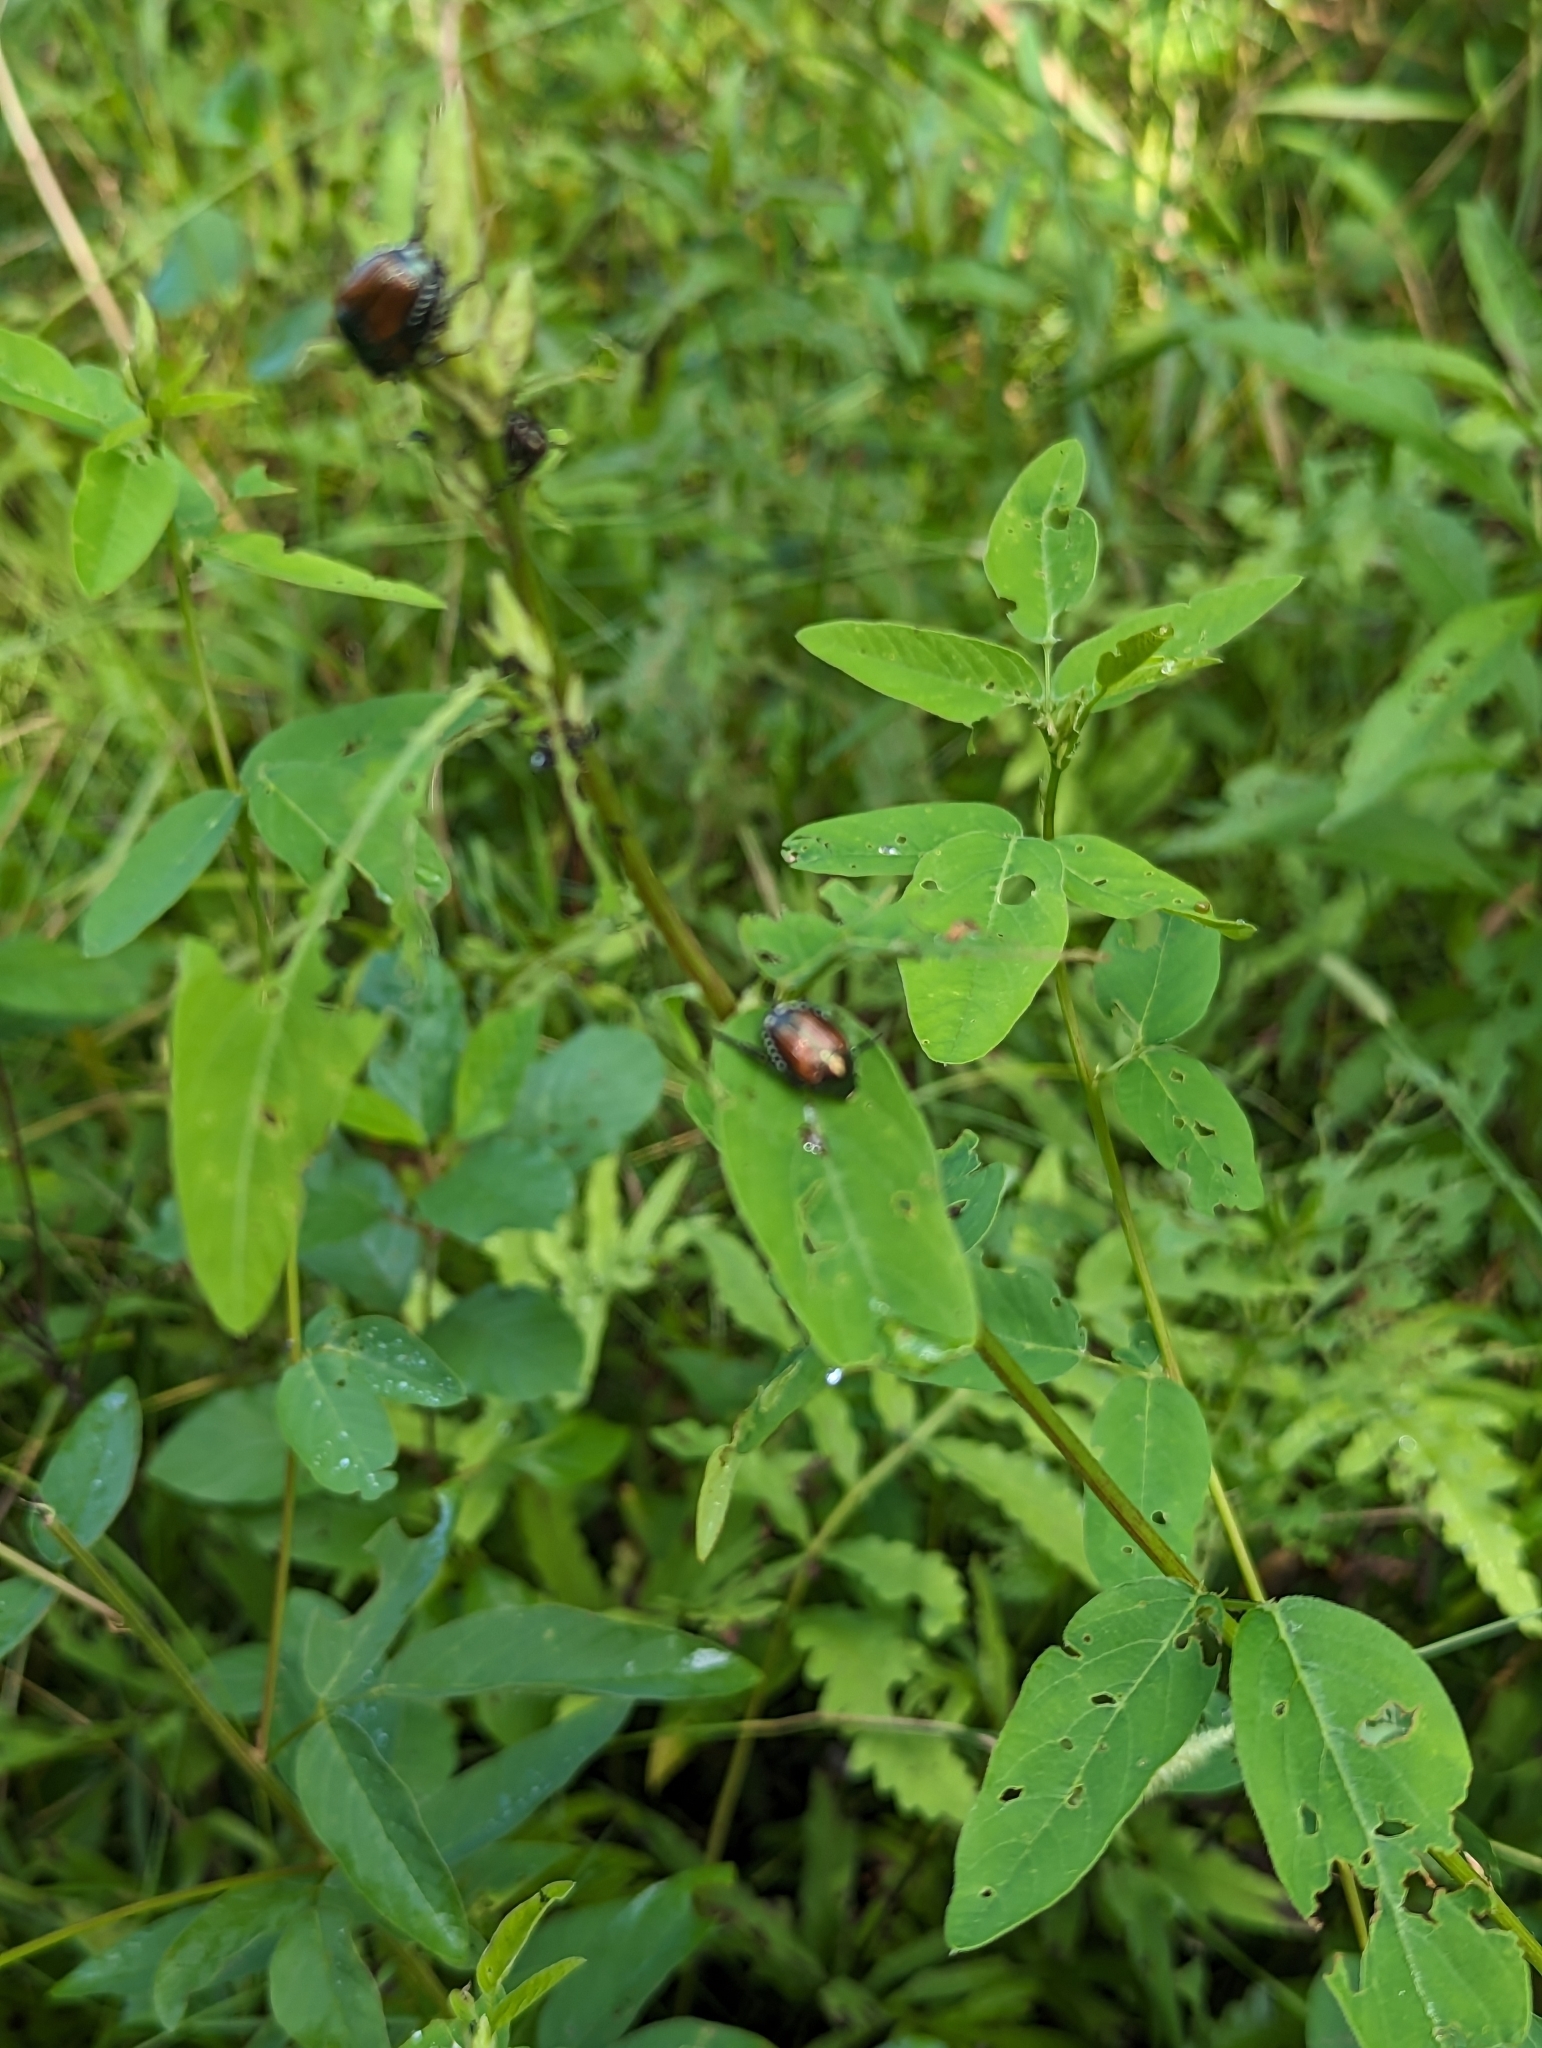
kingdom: Animalia
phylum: Arthropoda
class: Insecta
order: Coleoptera
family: Scarabaeidae
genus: Popillia
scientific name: Popillia japonica
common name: Japanese beetle
